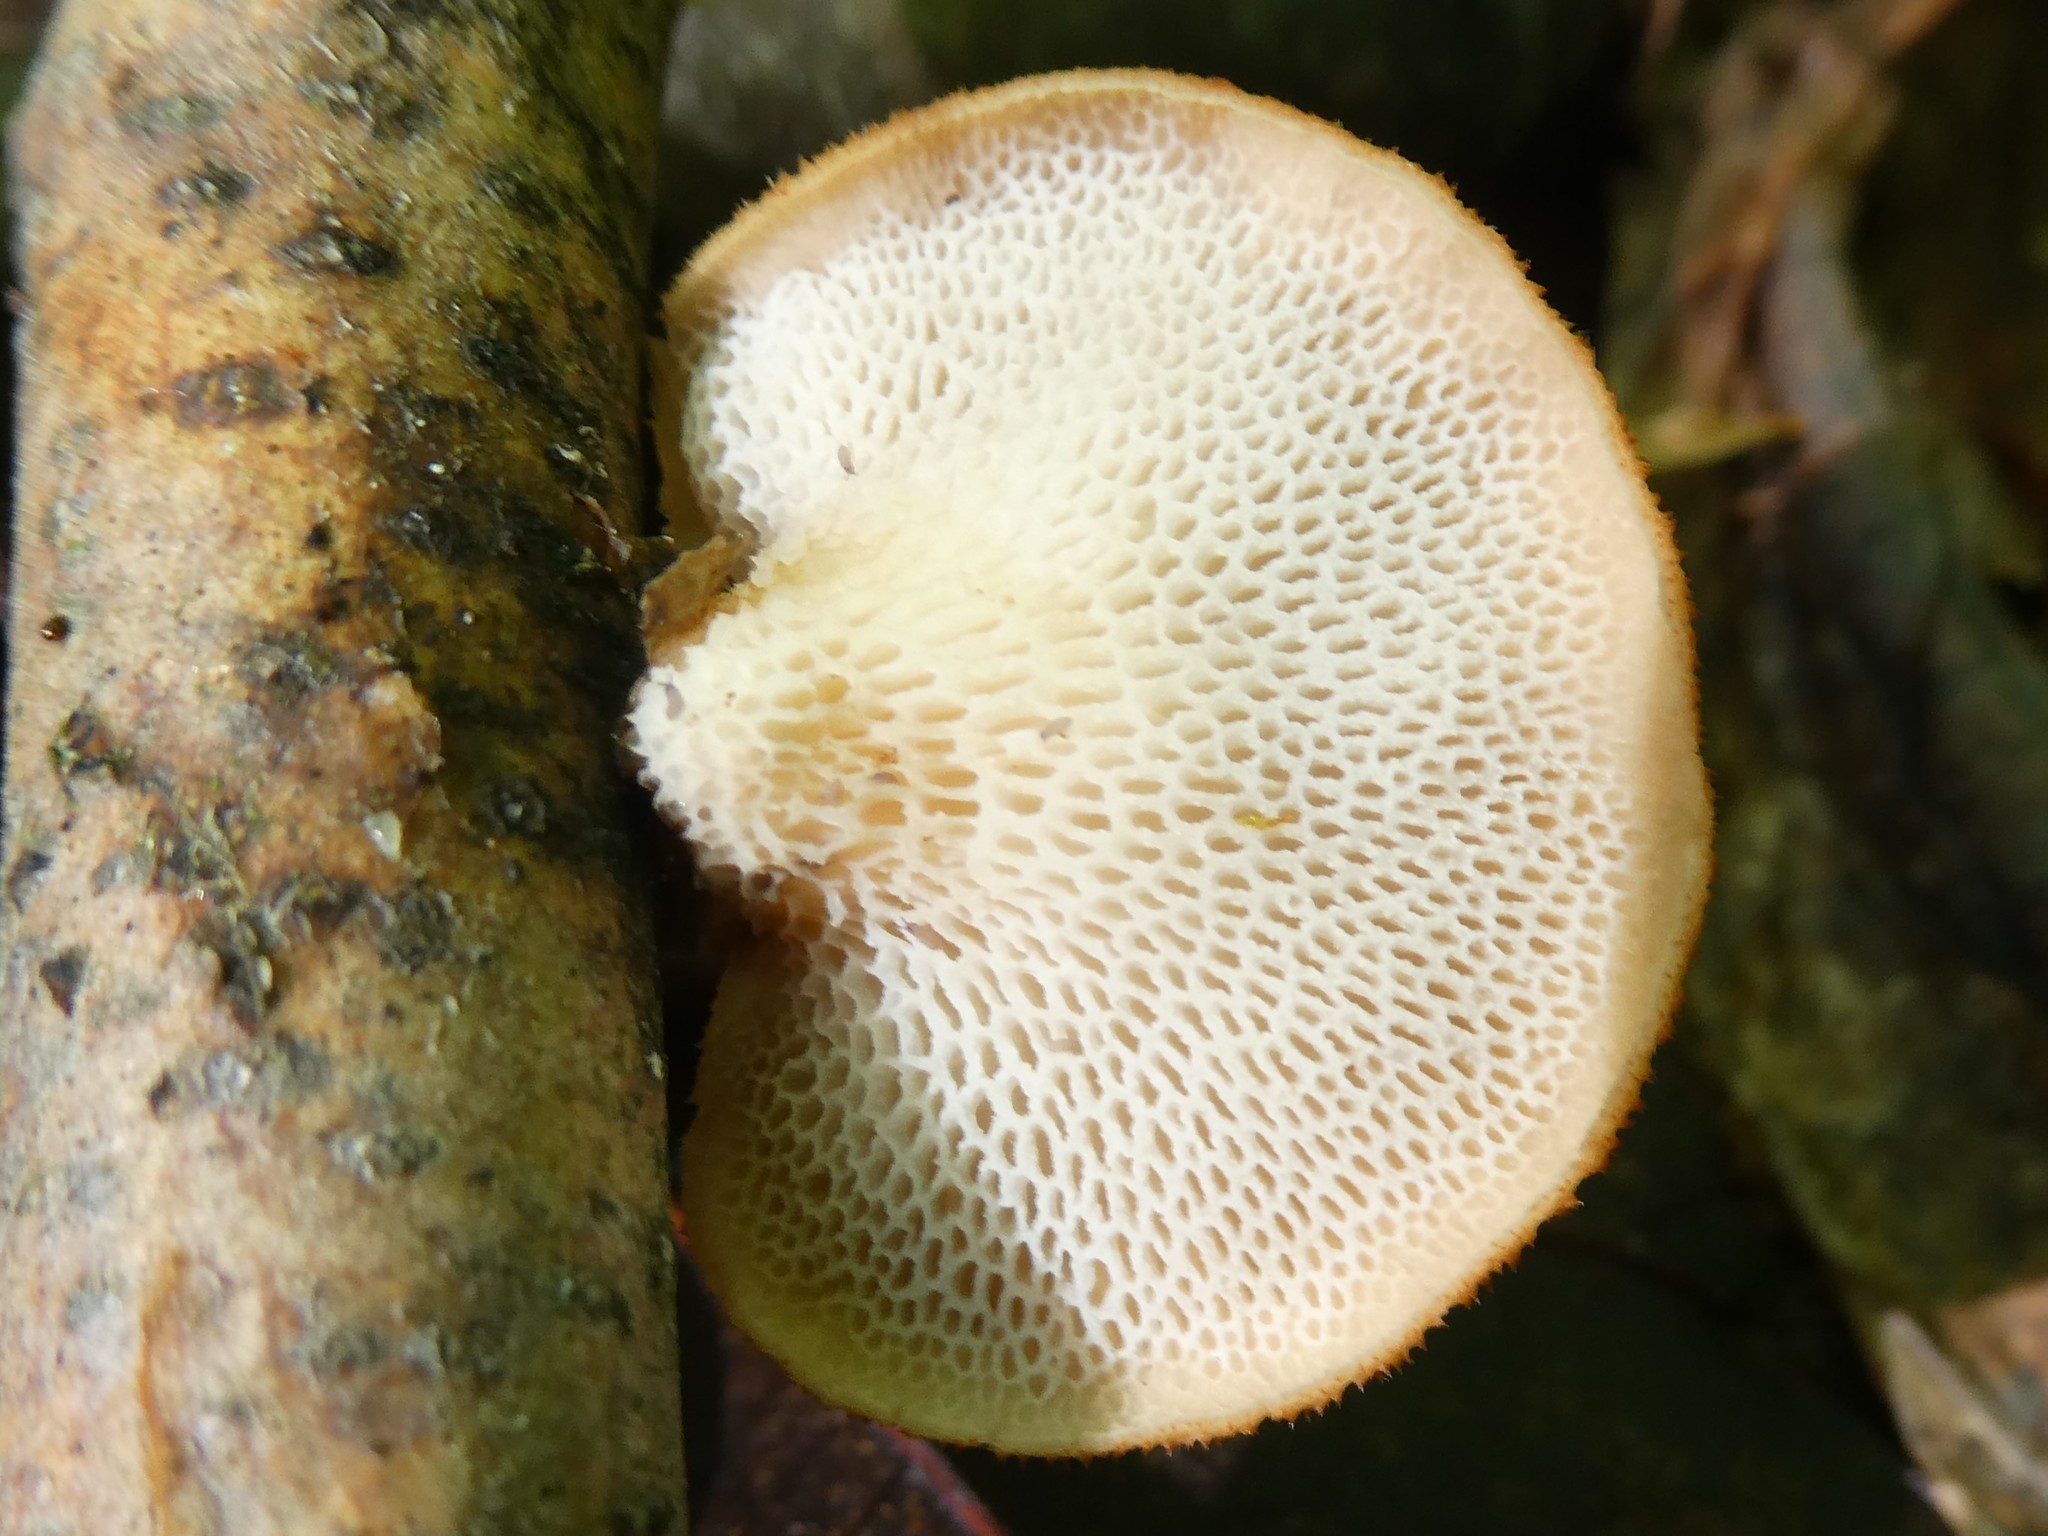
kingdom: Fungi
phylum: Basidiomycota
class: Agaricomycetes
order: Polyporales
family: Polyporaceae
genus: Neofavolus
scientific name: Neofavolus alveolaris
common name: Hexagonal-pored polypore
